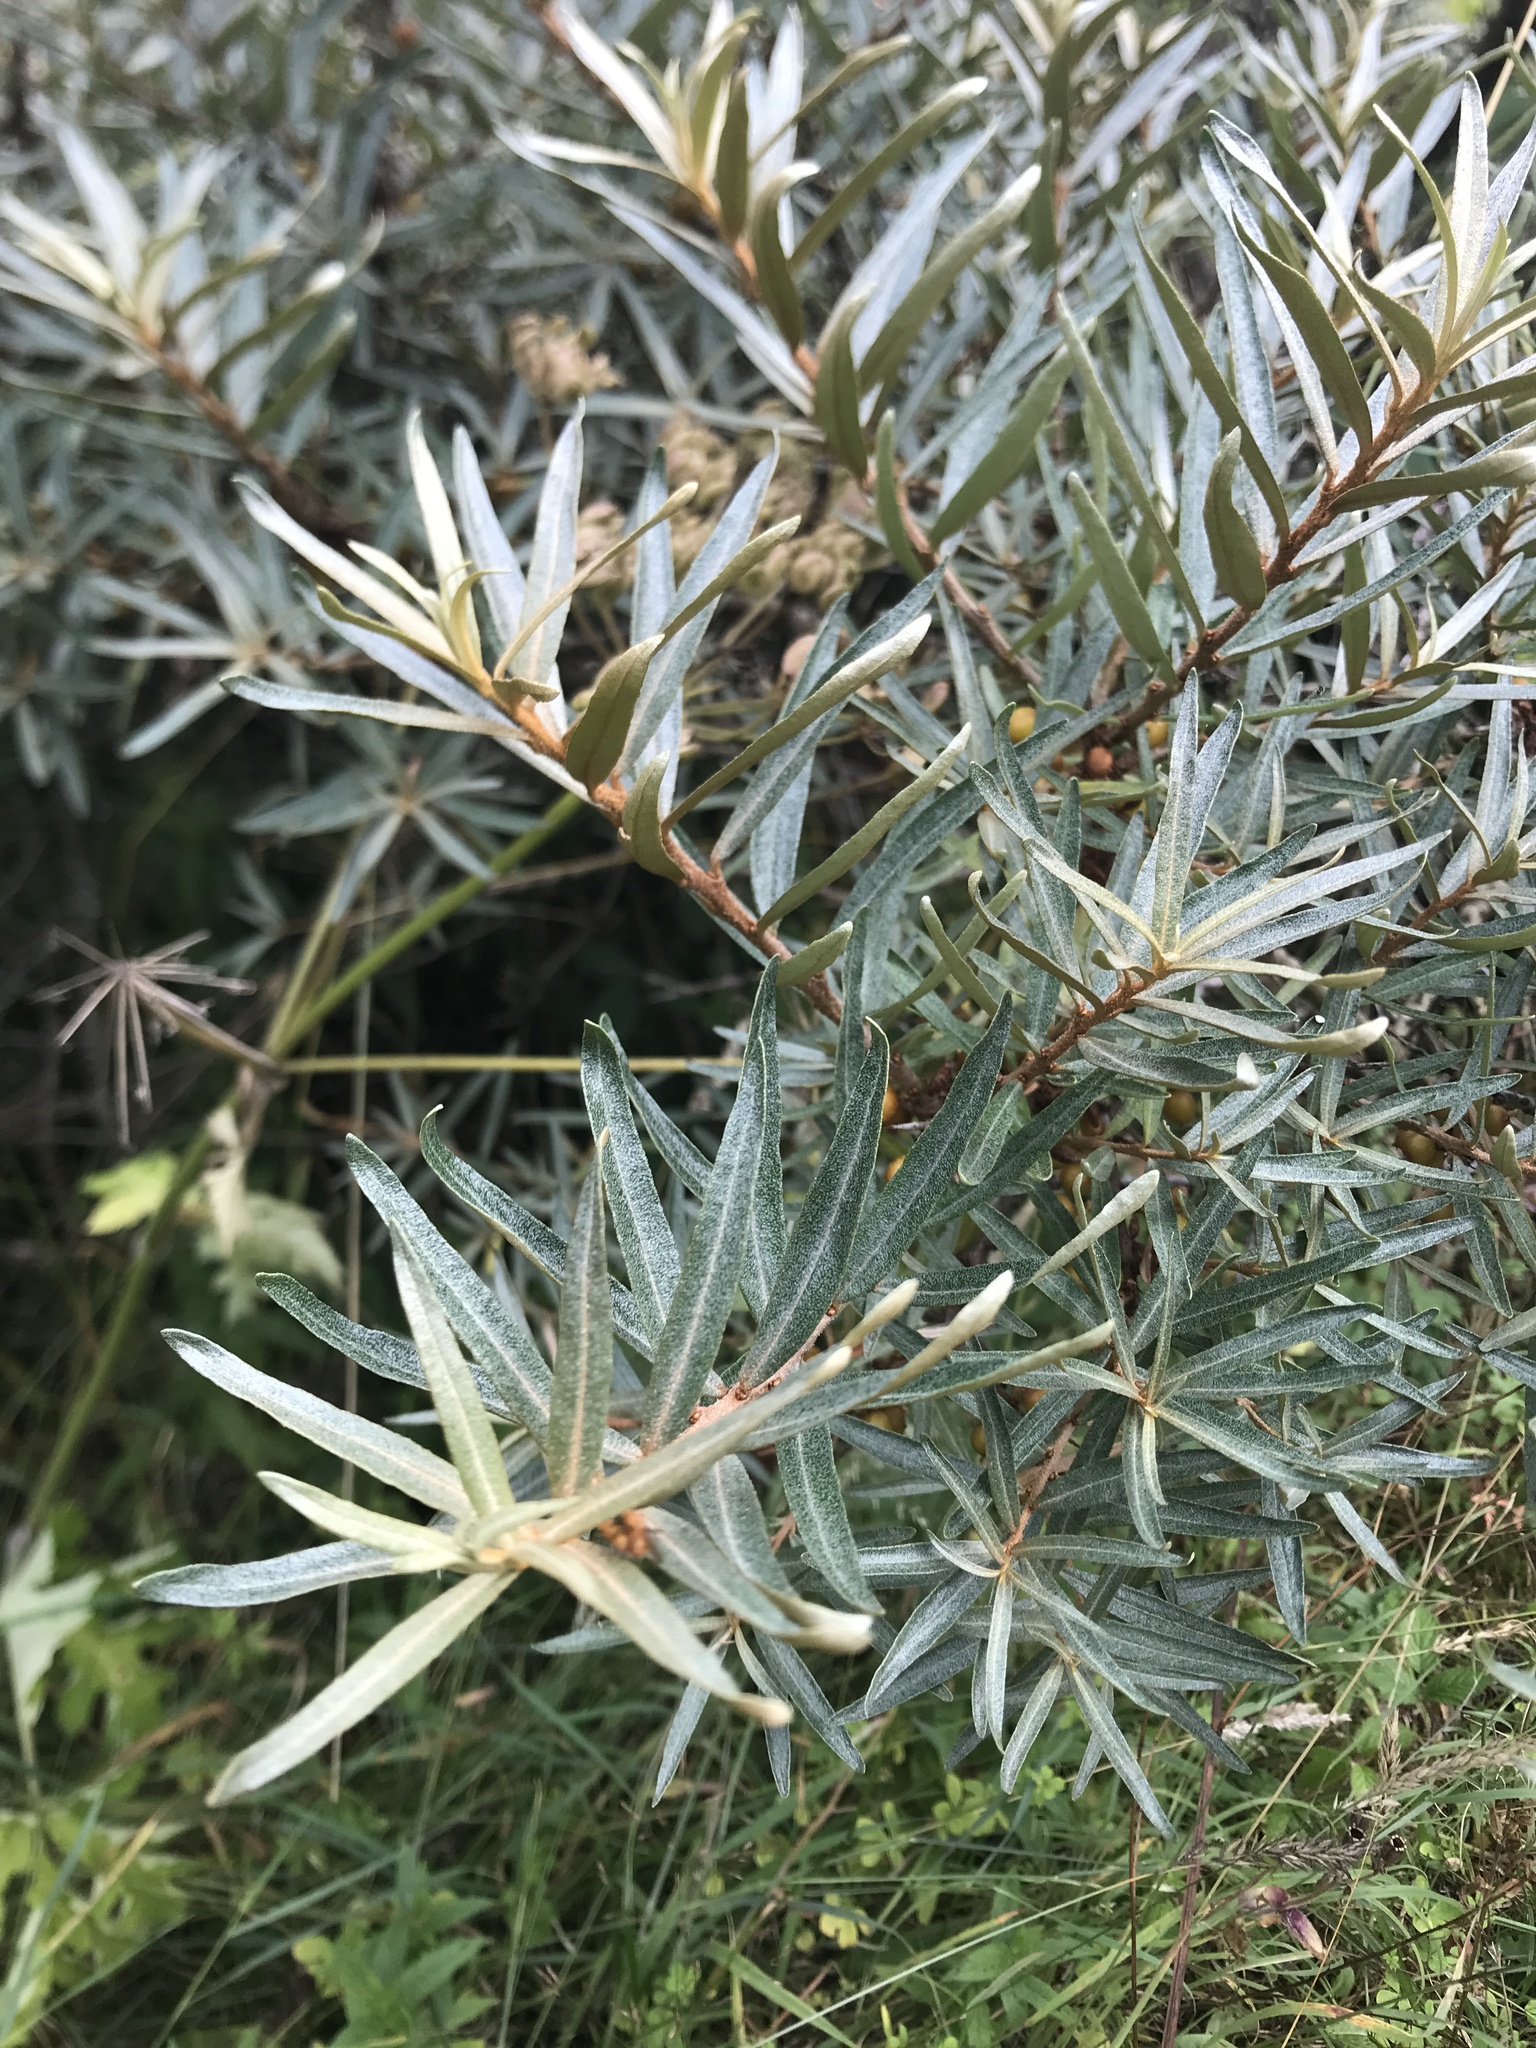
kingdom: Plantae
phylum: Tracheophyta
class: Magnoliopsida
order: Rosales
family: Elaeagnaceae
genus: Hippophae
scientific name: Hippophae rhamnoides
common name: Sea-buckthorn
